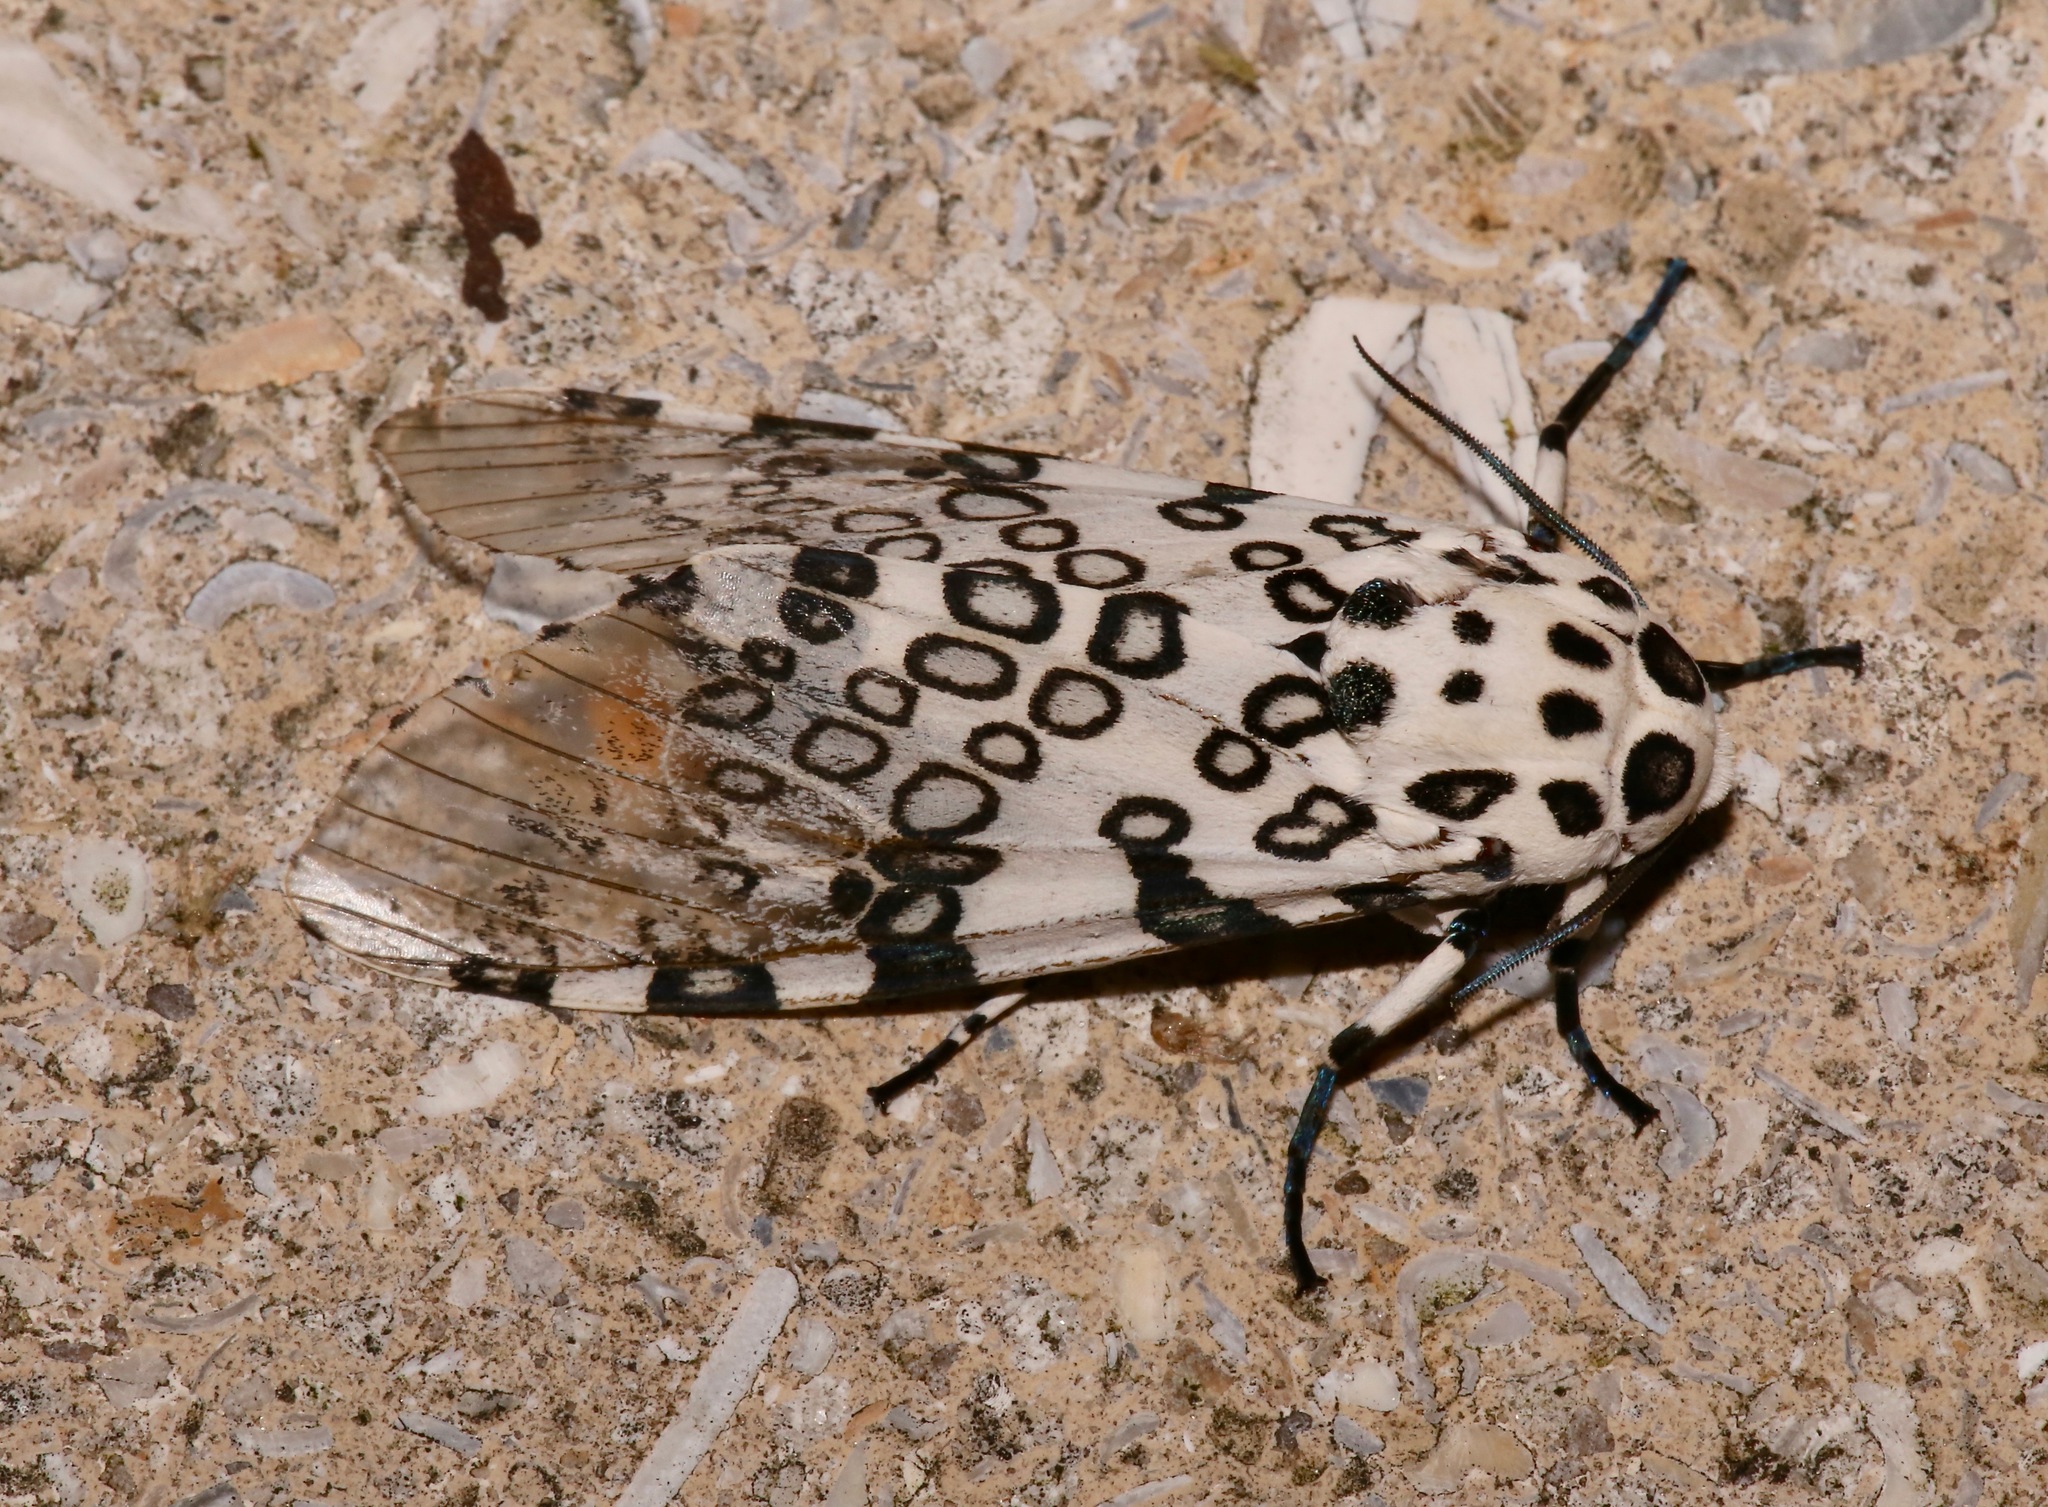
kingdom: Animalia
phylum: Arthropoda
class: Insecta
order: Lepidoptera
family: Erebidae
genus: Hypercompe
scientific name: Hypercompe scribonia
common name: Giant leopard moth
